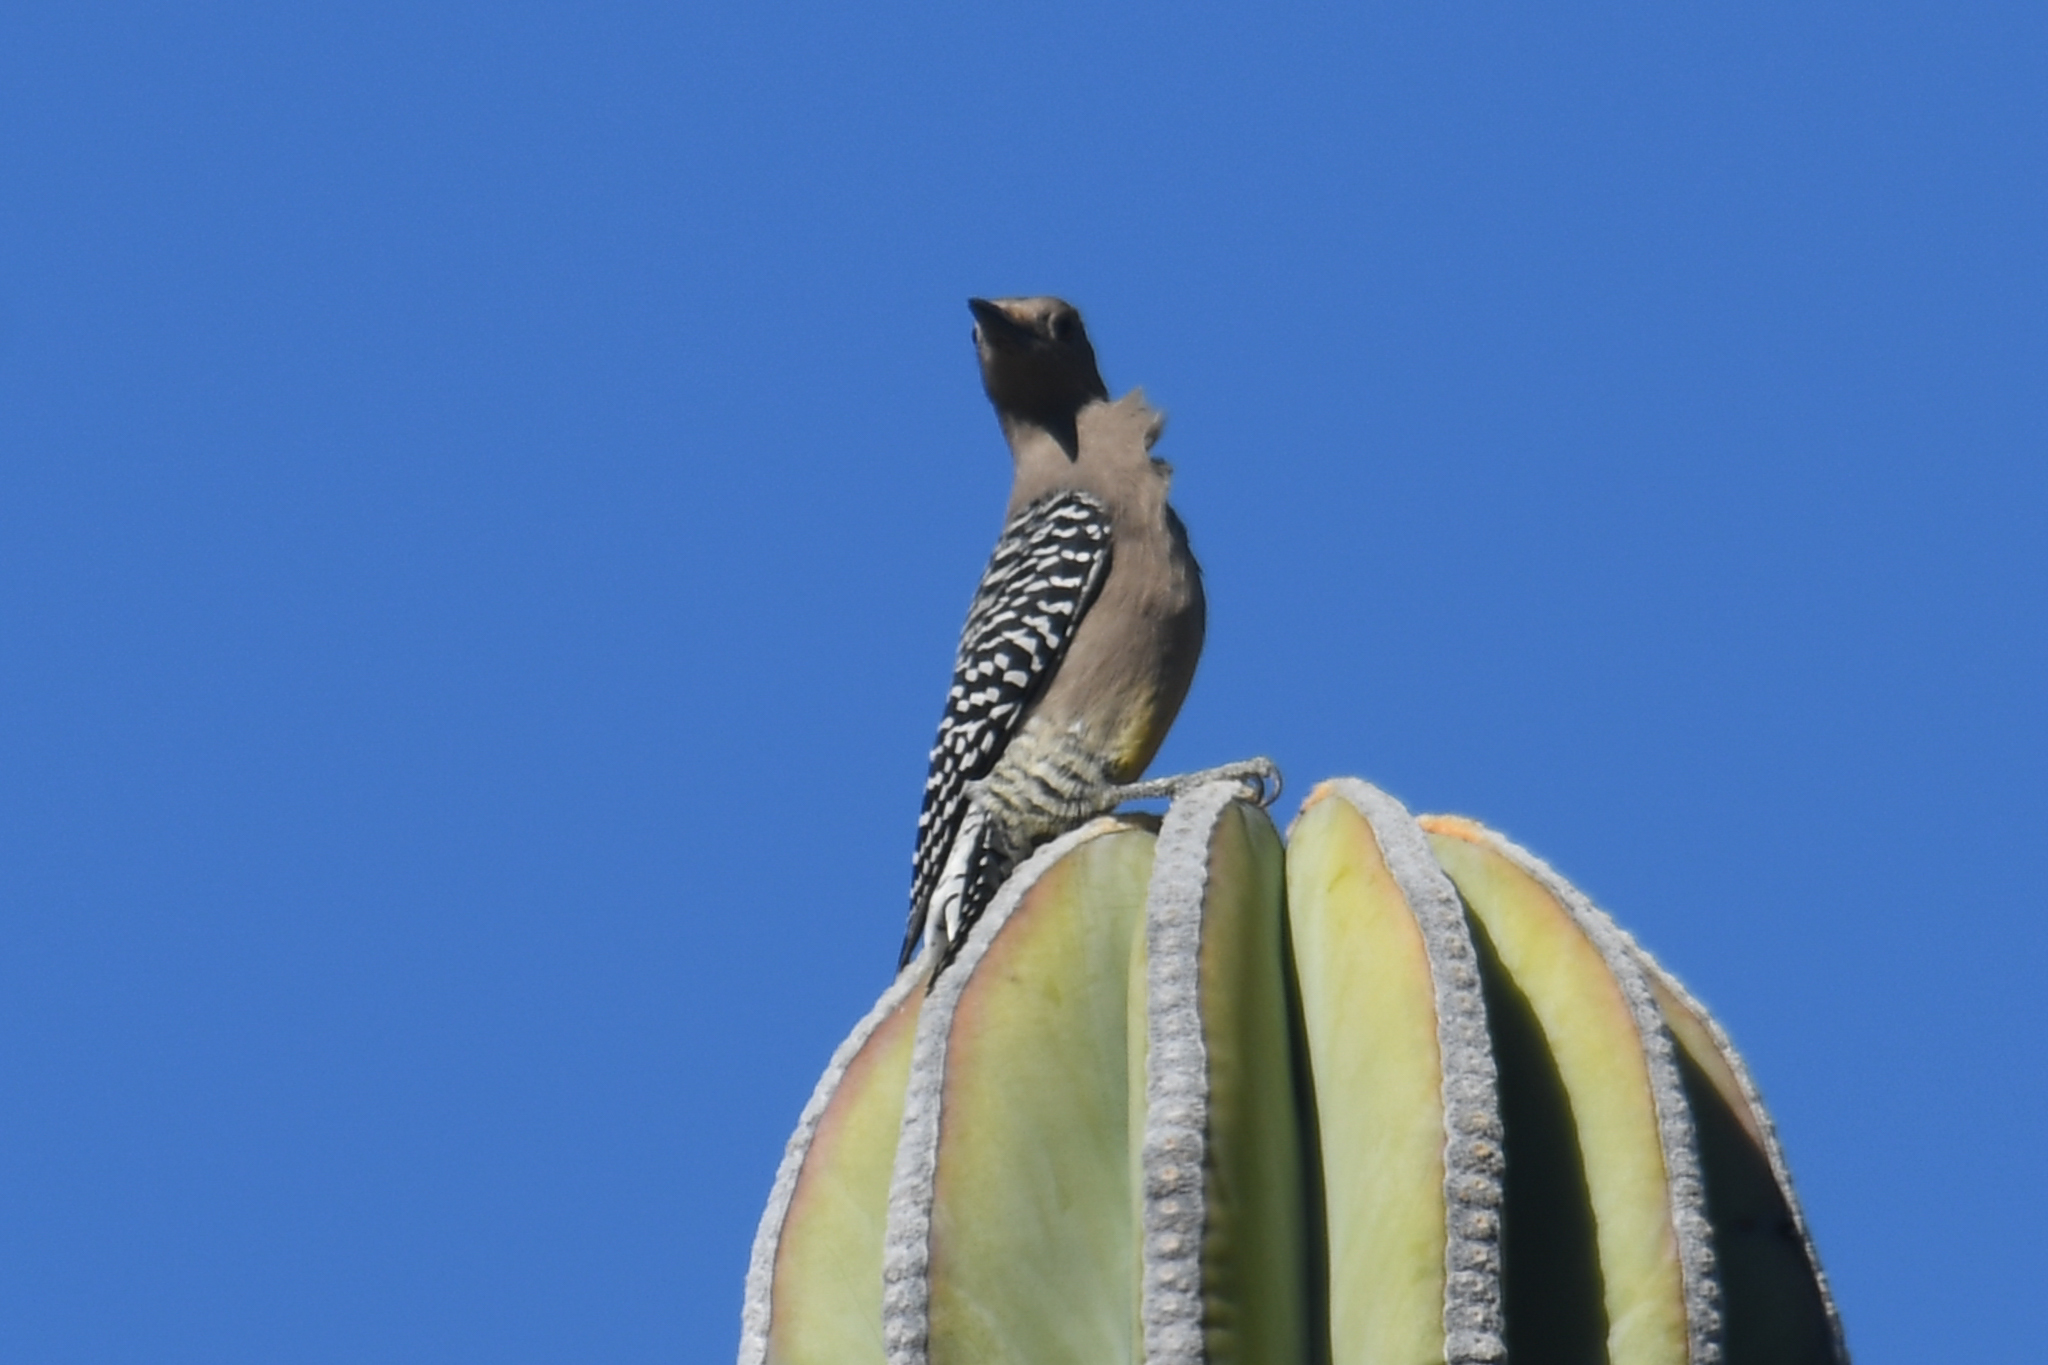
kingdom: Animalia
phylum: Chordata
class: Aves
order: Piciformes
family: Picidae
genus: Melanerpes
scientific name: Melanerpes uropygialis
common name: Gila woodpecker
